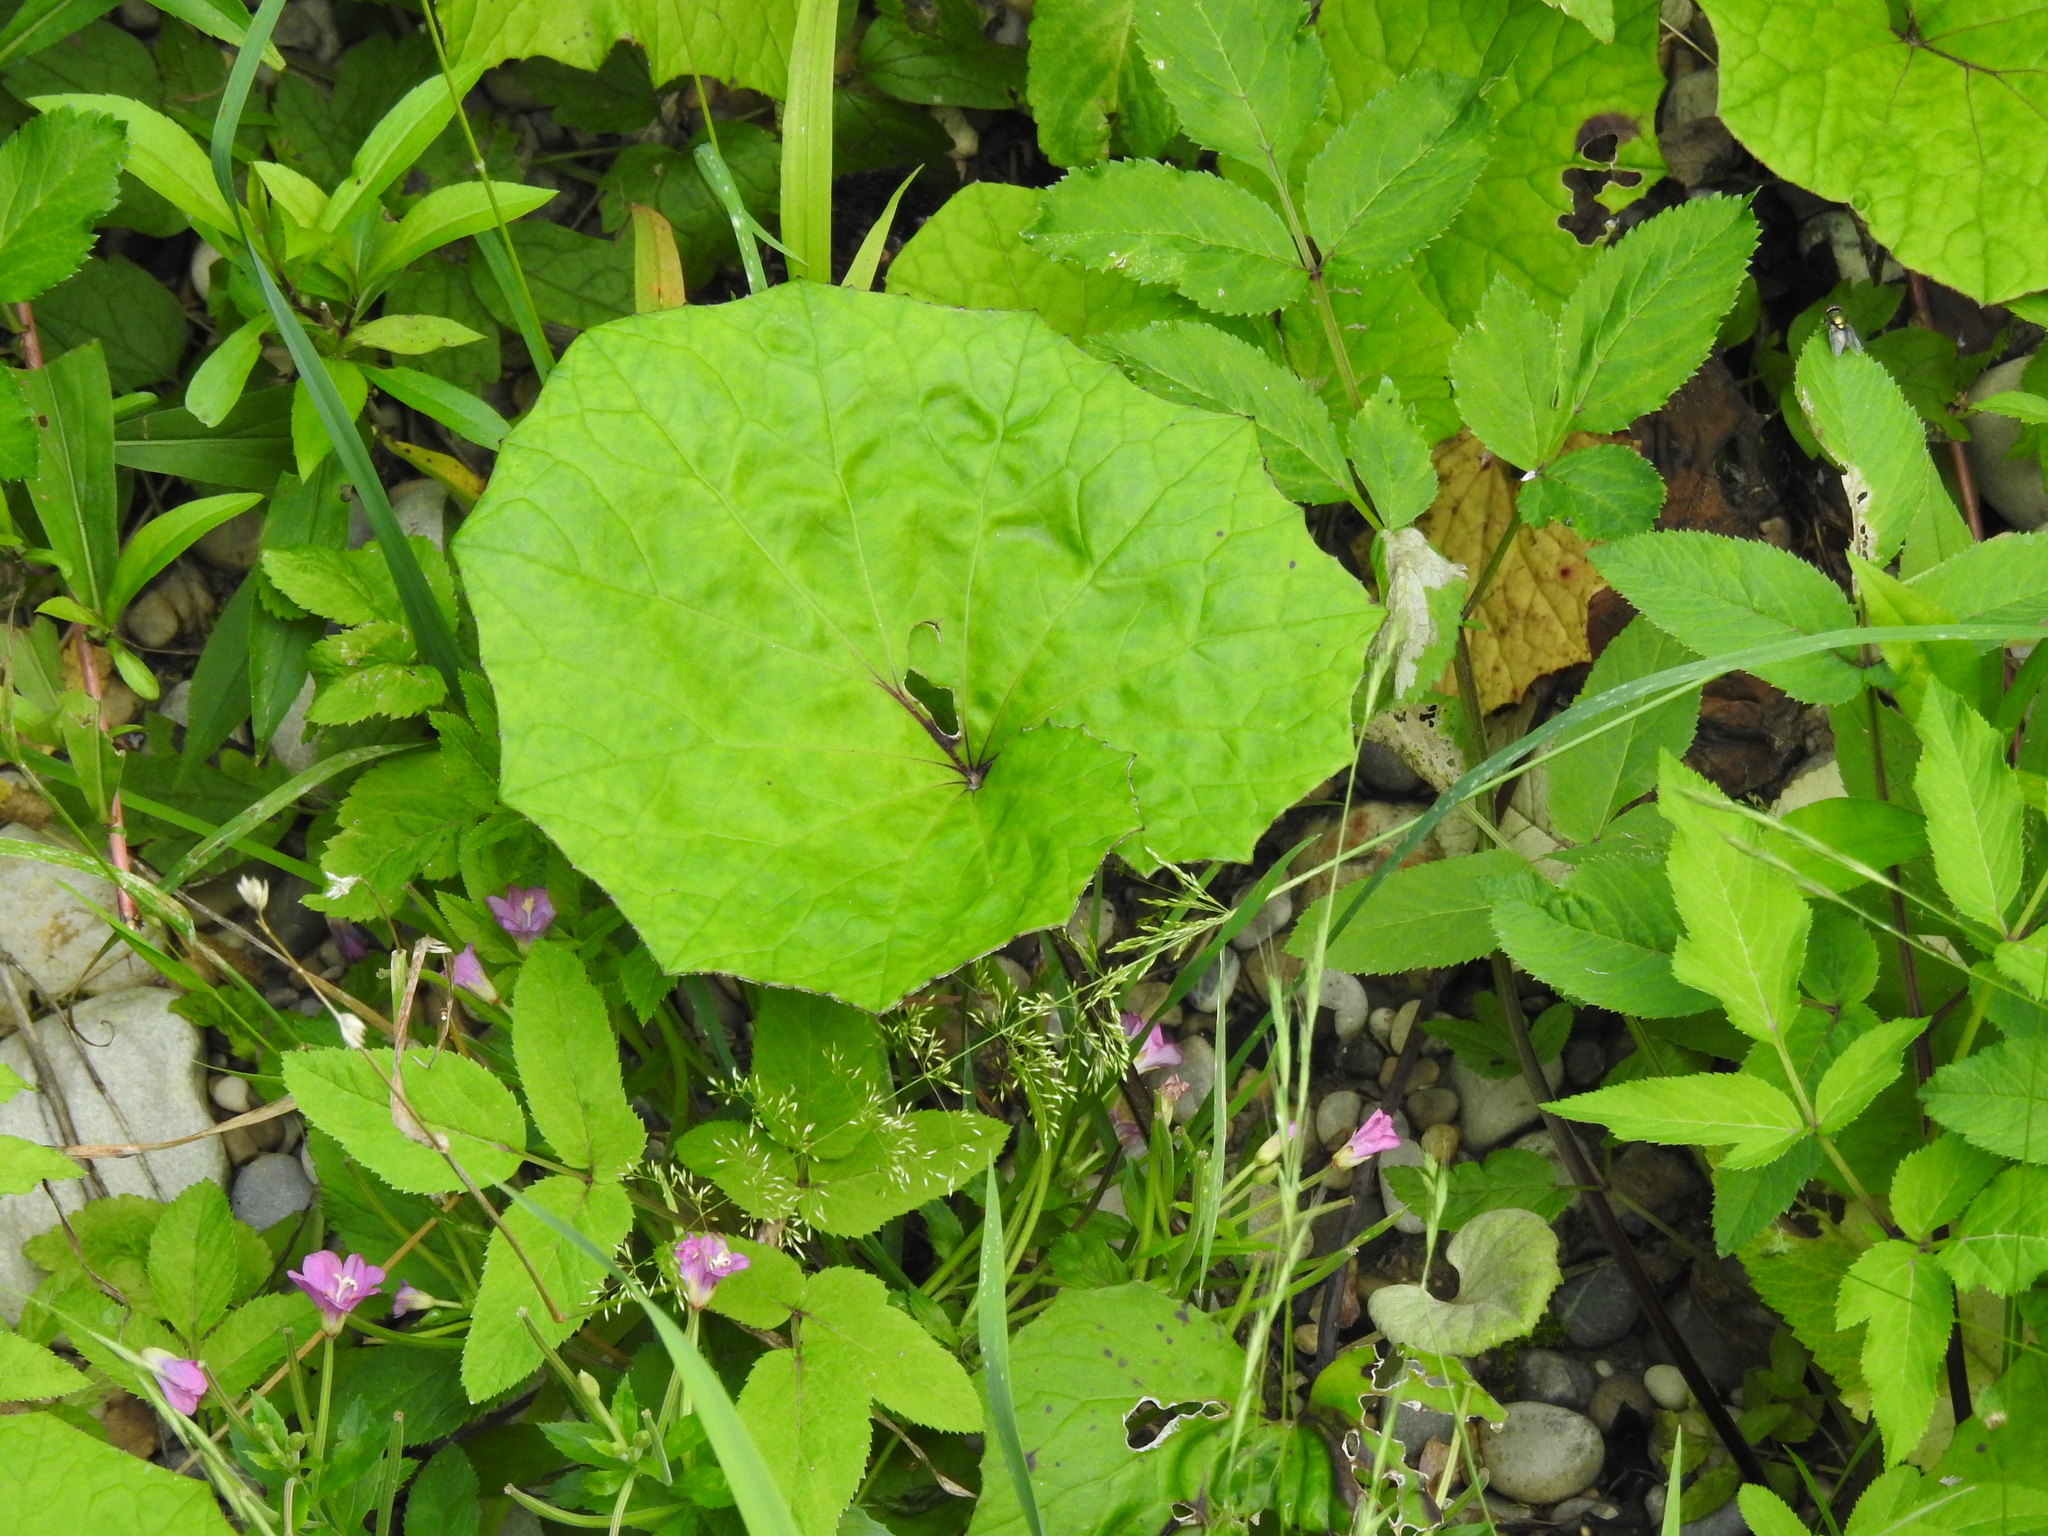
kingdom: Plantae
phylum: Tracheophyta
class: Magnoliopsida
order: Asterales
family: Asteraceae
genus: Tussilago
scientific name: Tussilago farfara
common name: Coltsfoot
